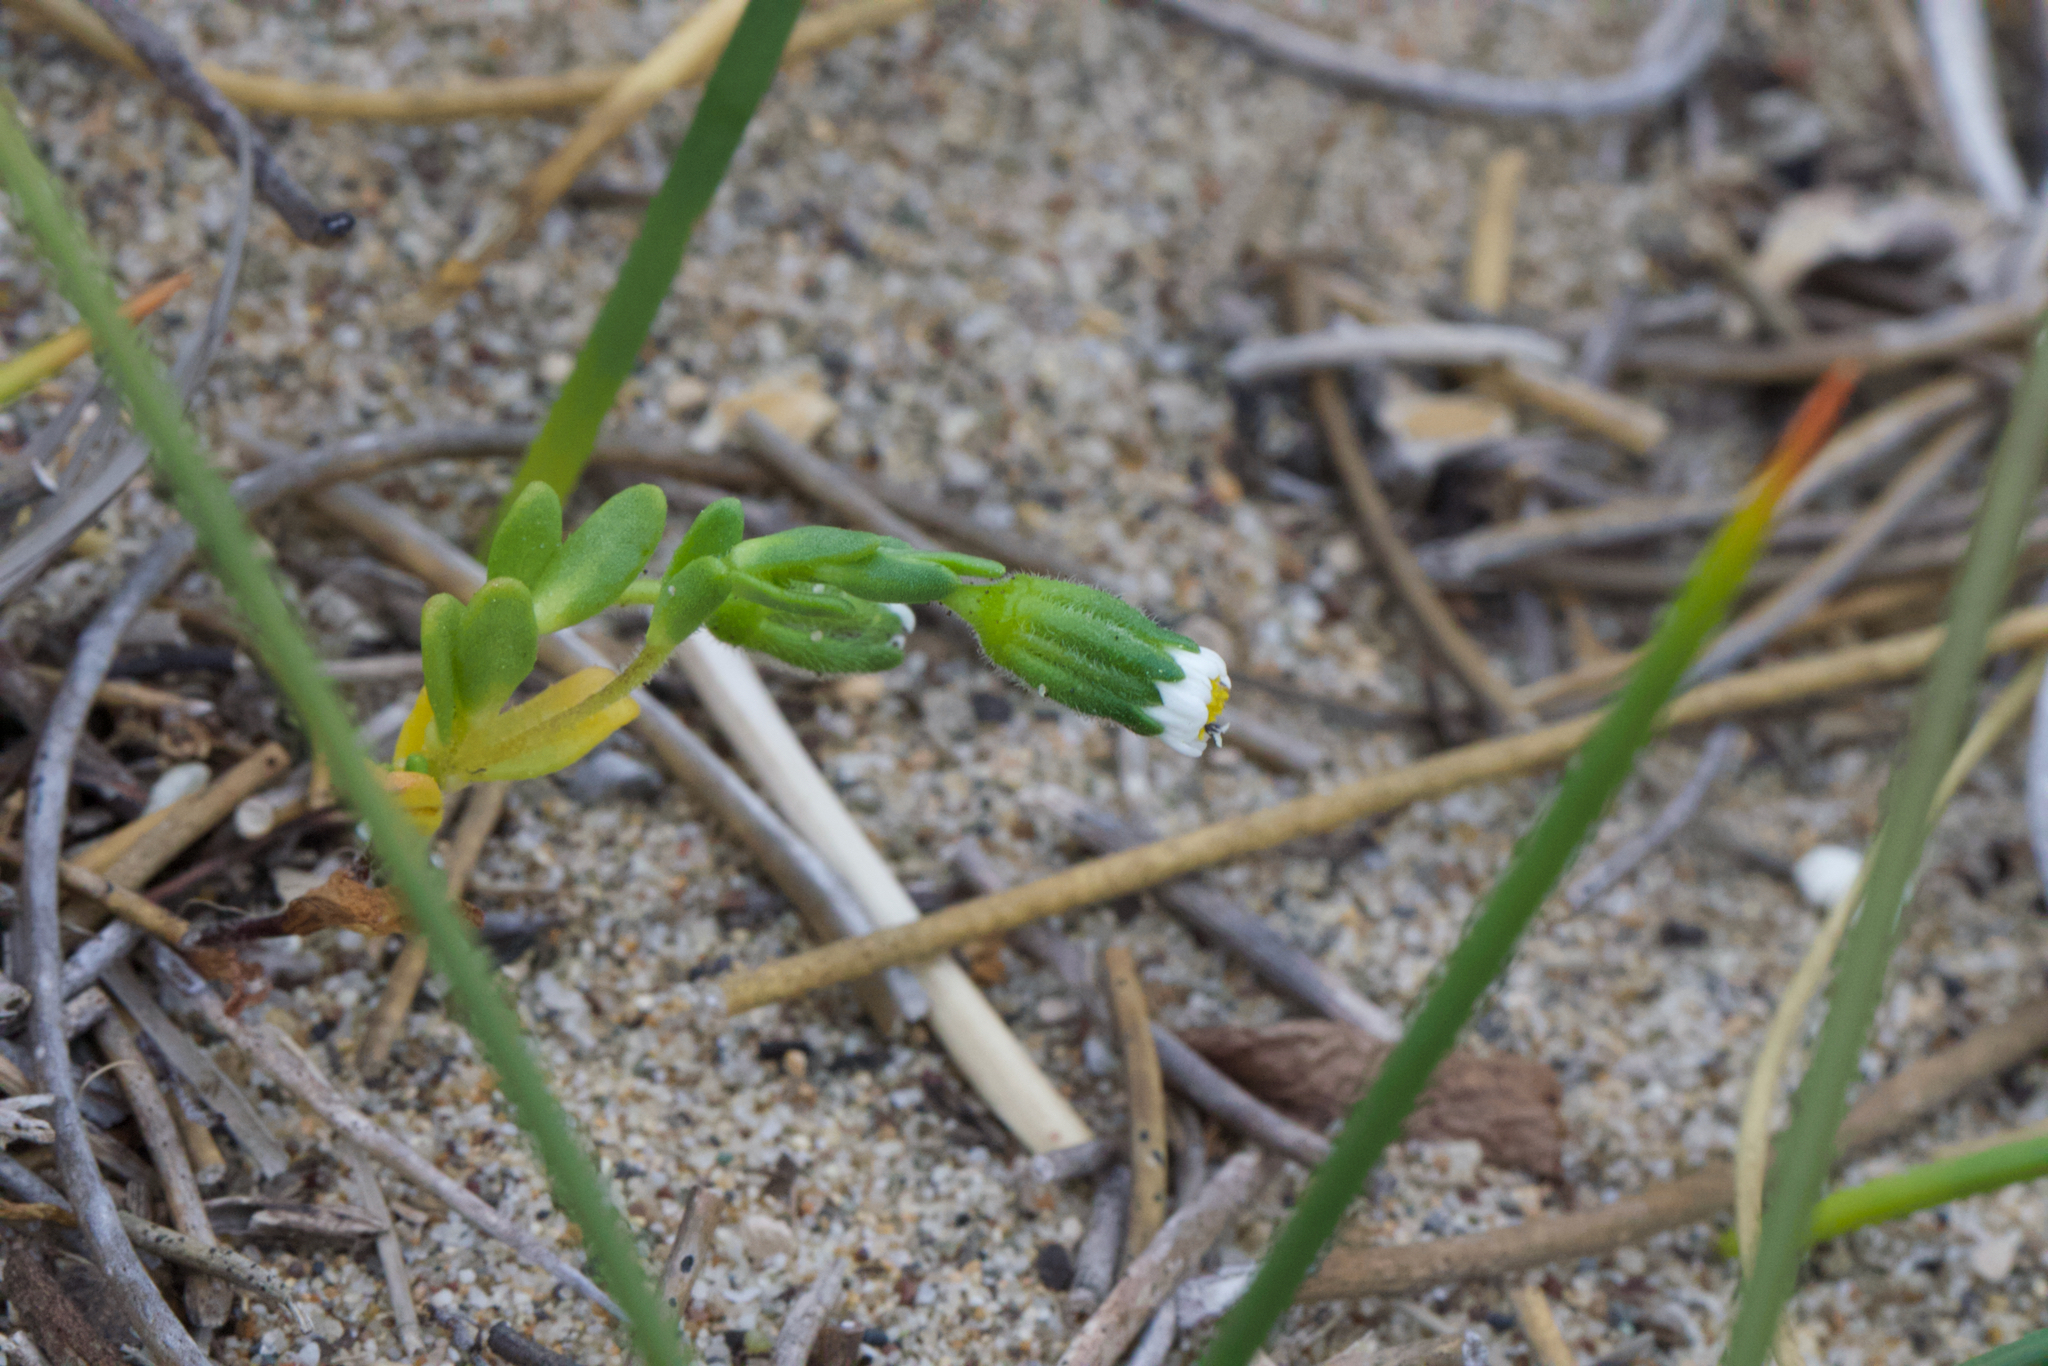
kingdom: Plantae
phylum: Tracheophyta
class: Magnoliopsida
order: Asterales
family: Asteraceae
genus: Layia
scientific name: Layia carnosa
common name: Beach layia
